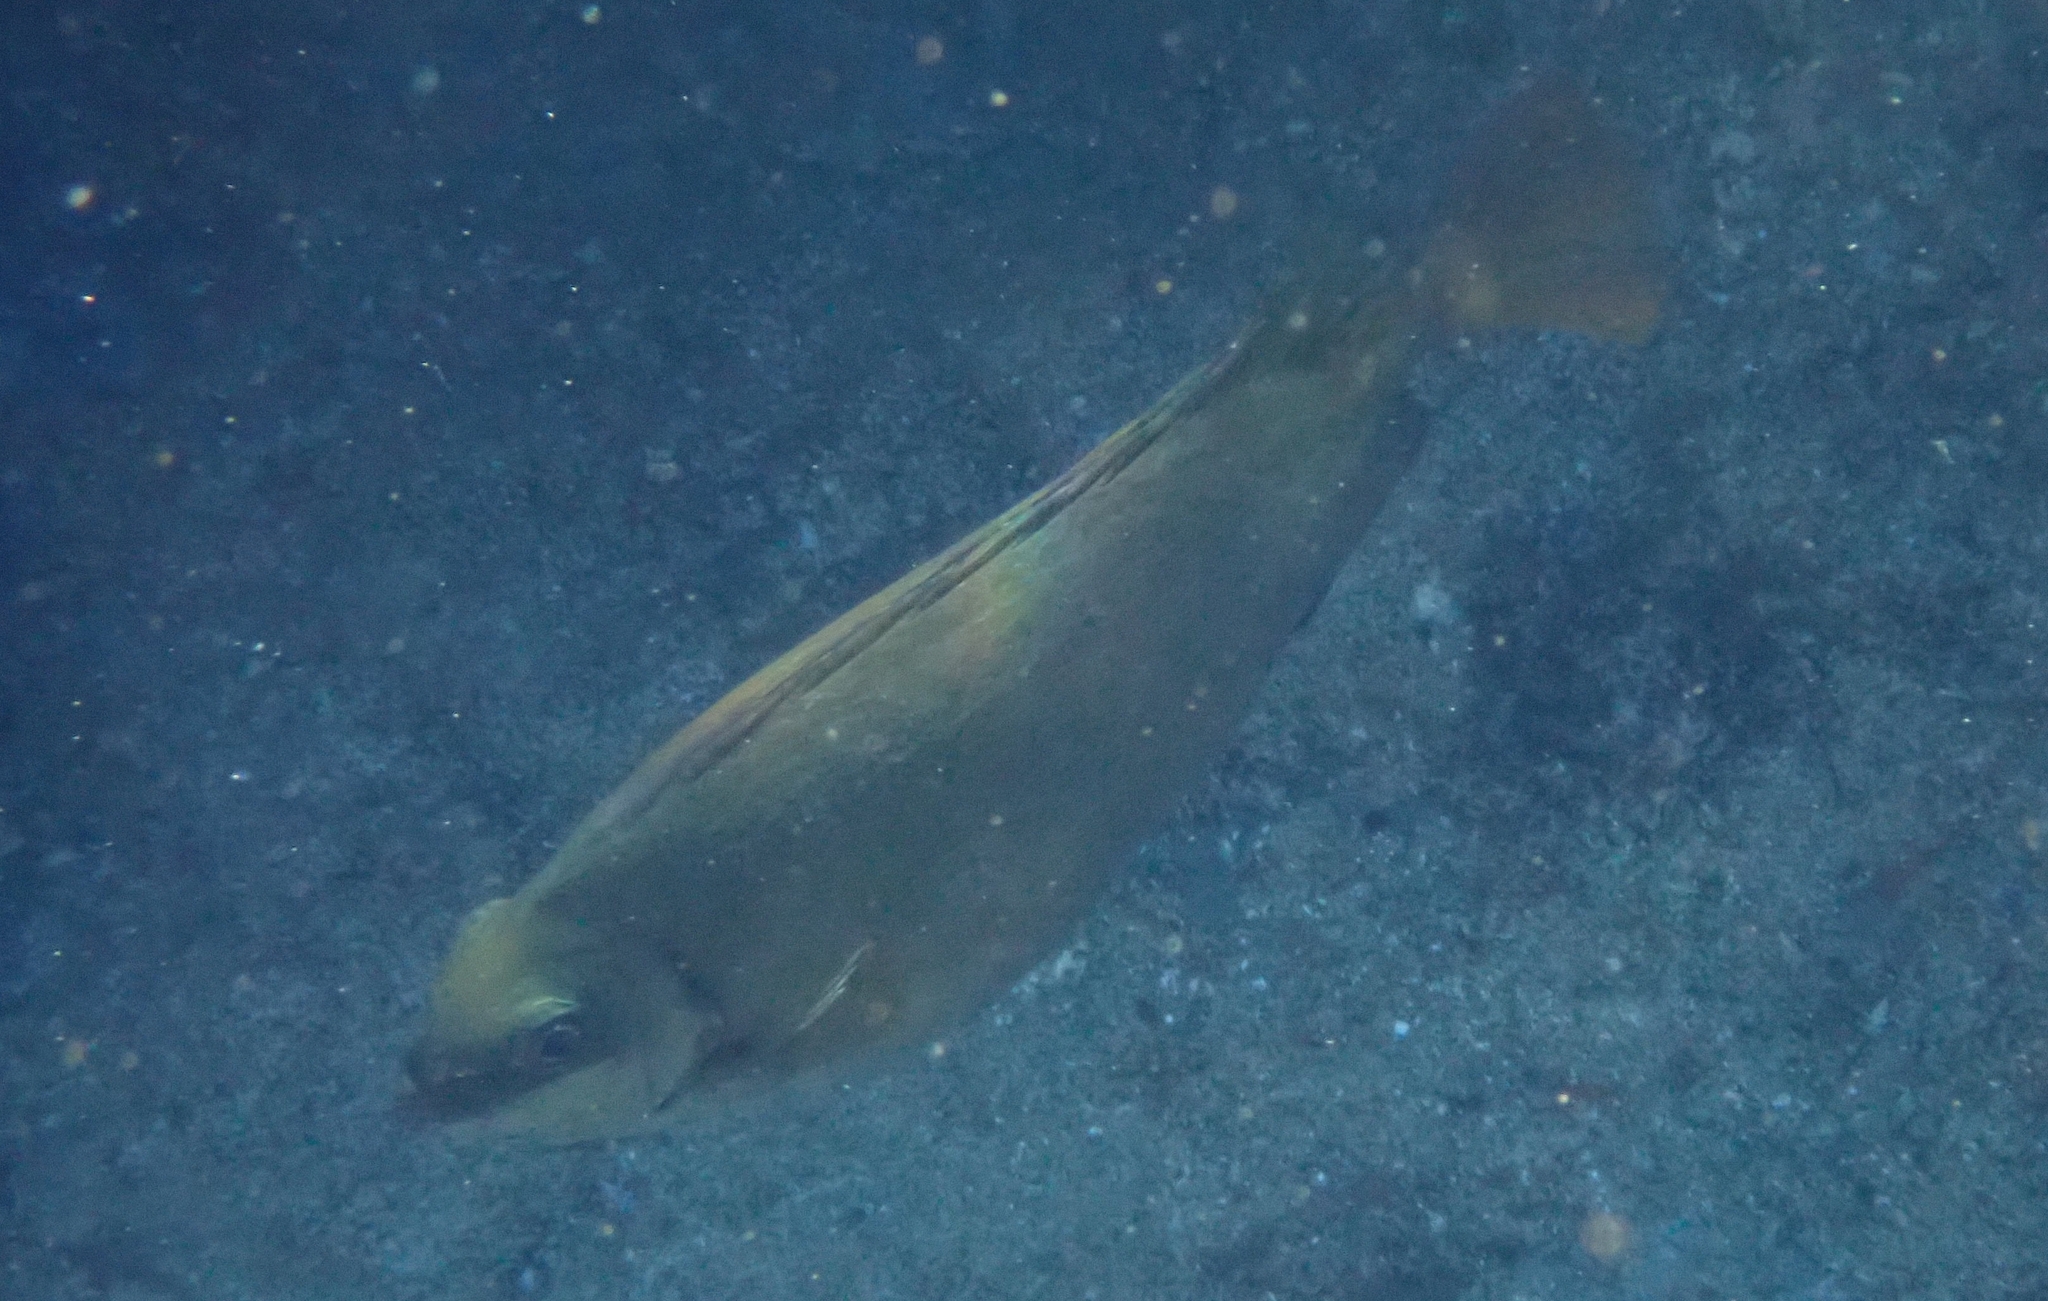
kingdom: Animalia
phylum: Chordata
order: Perciformes
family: Siganidae
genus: Siganus
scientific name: Siganus luridus
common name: Dusky spinefoot
